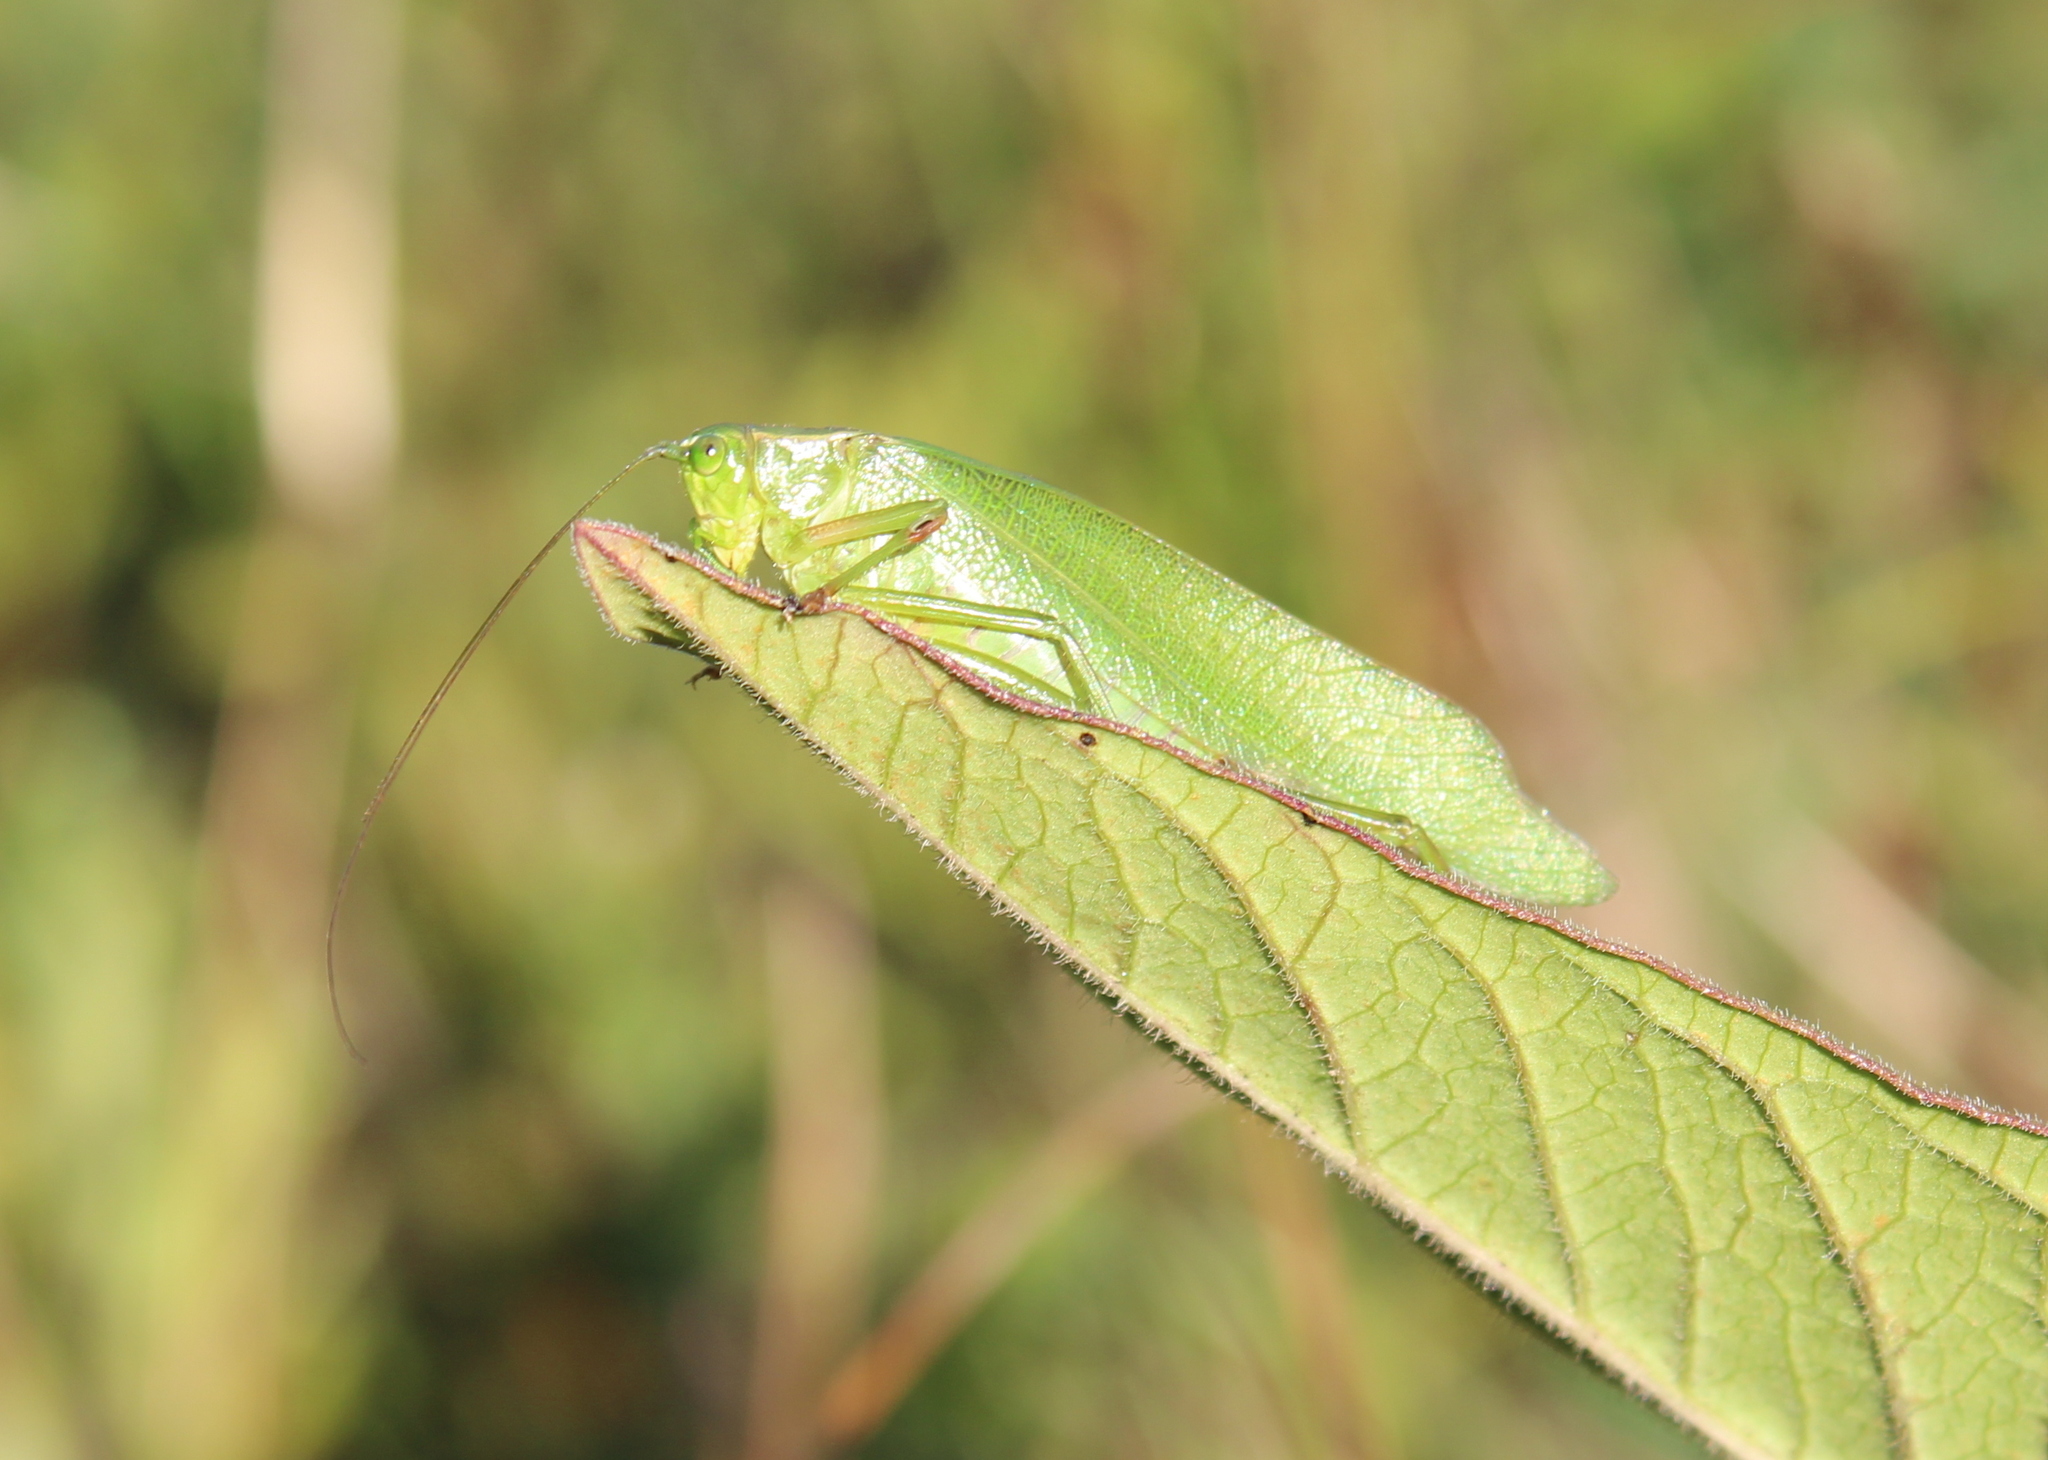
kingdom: Animalia
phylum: Arthropoda
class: Insecta
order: Orthoptera
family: Tettigoniidae
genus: Scudderia
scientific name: Scudderia furcata
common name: Fork-tailed bush katydid
